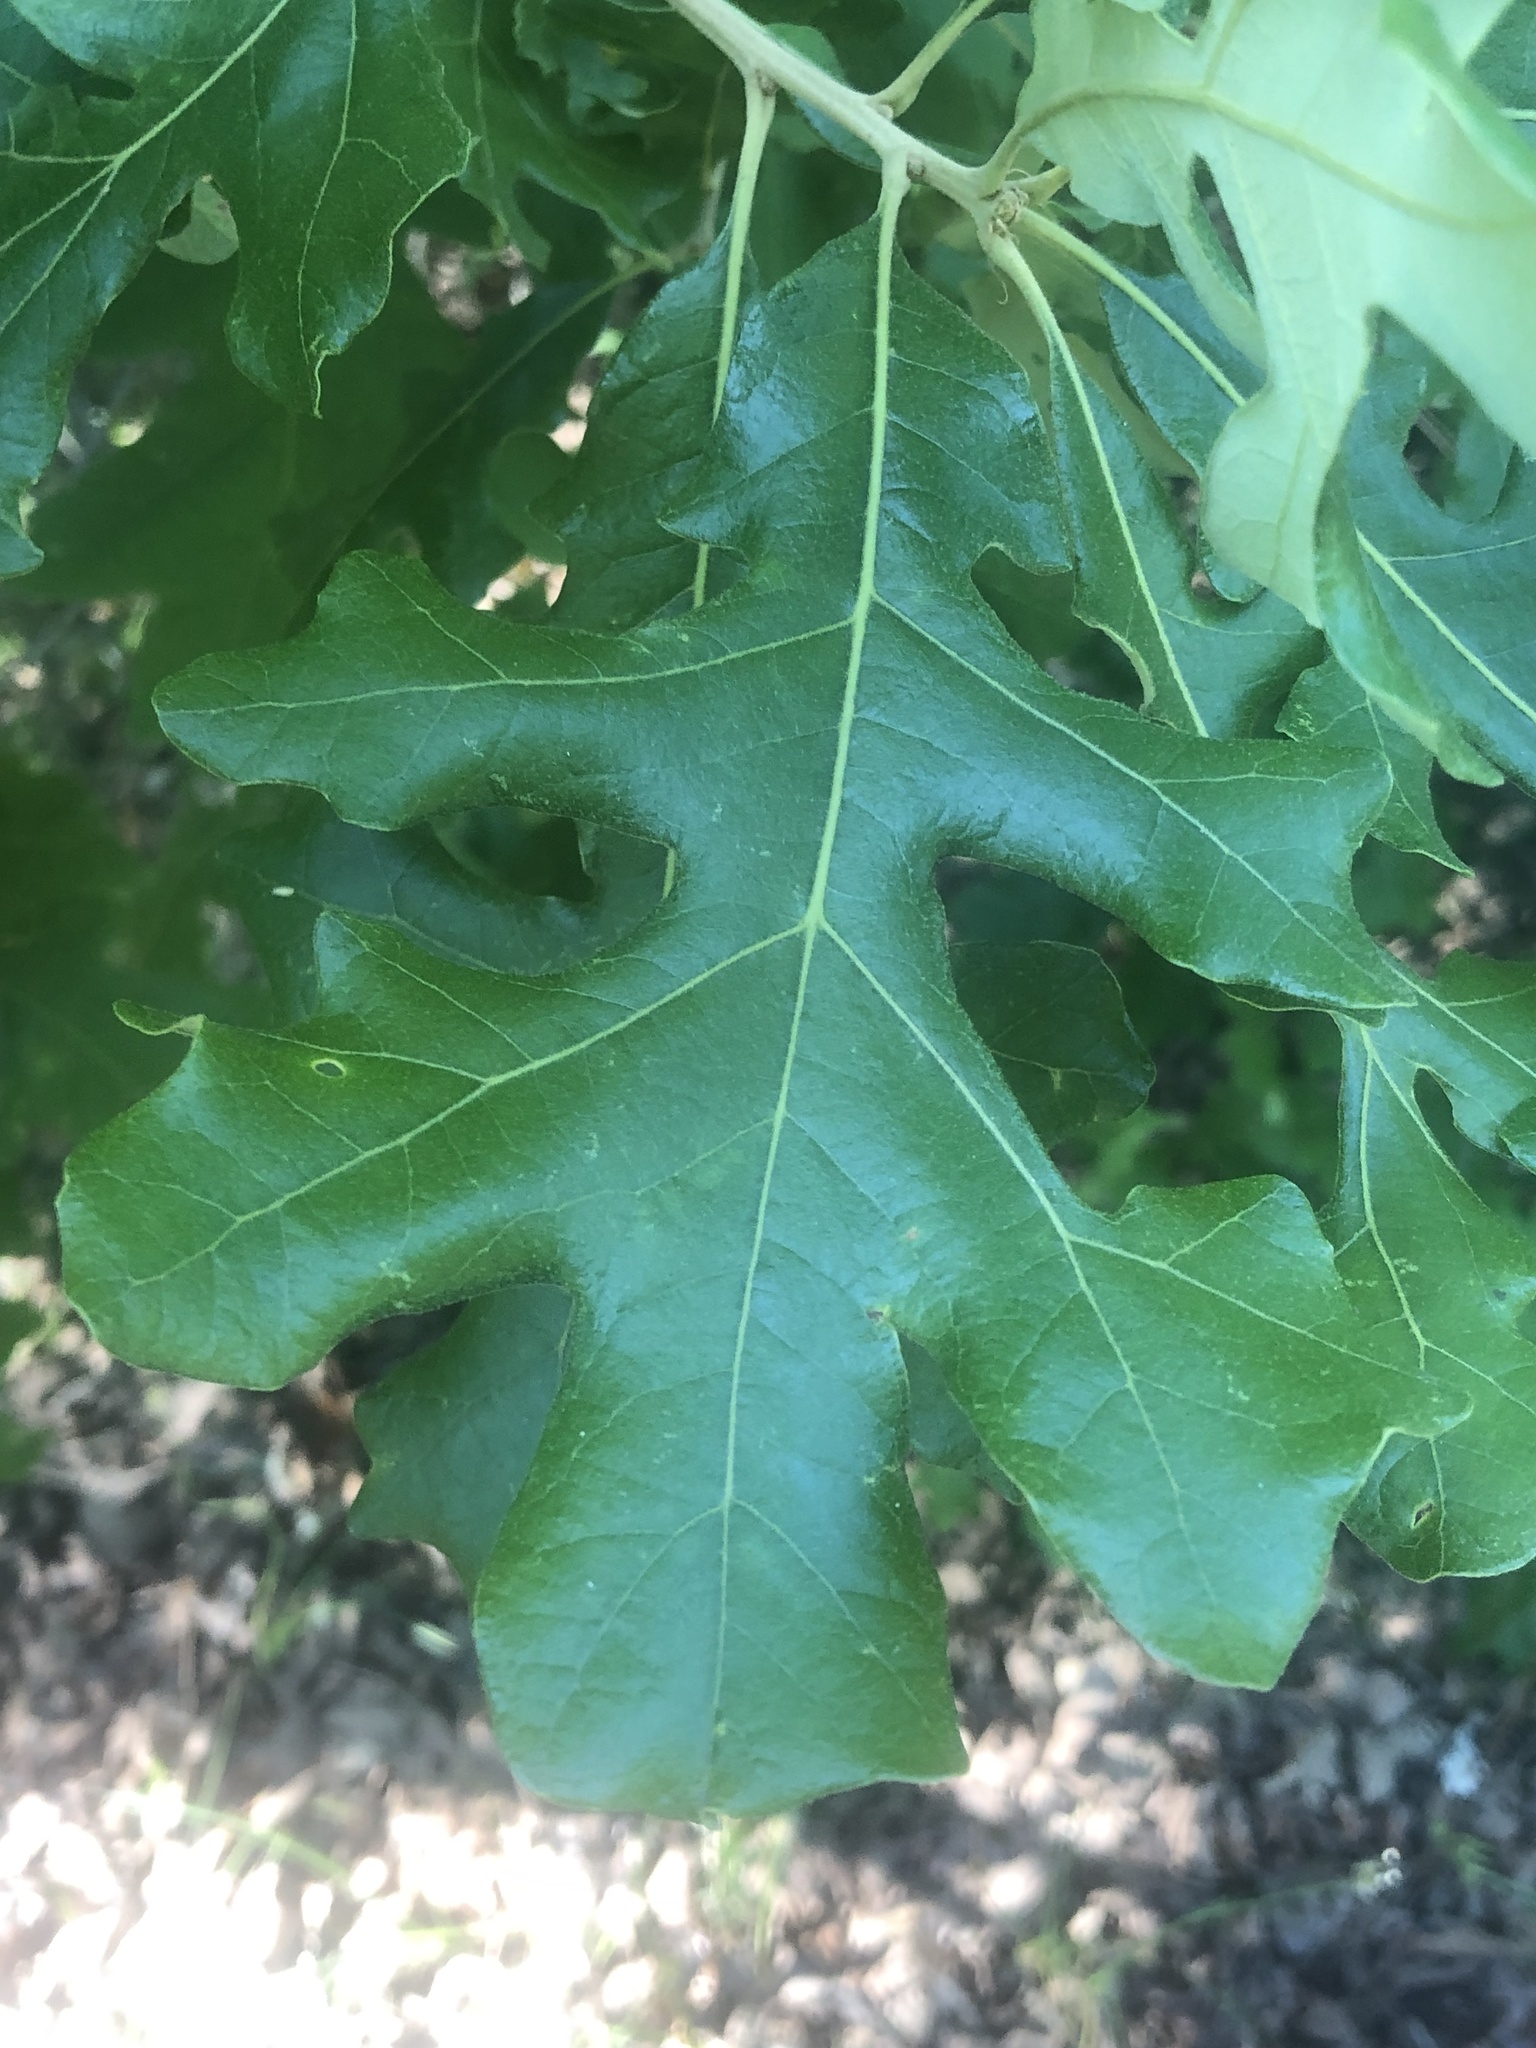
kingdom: Plantae
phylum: Tracheophyta
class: Magnoliopsida
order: Fagales
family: Fagaceae
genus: Quercus
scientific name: Quercus stellata
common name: Post oak
